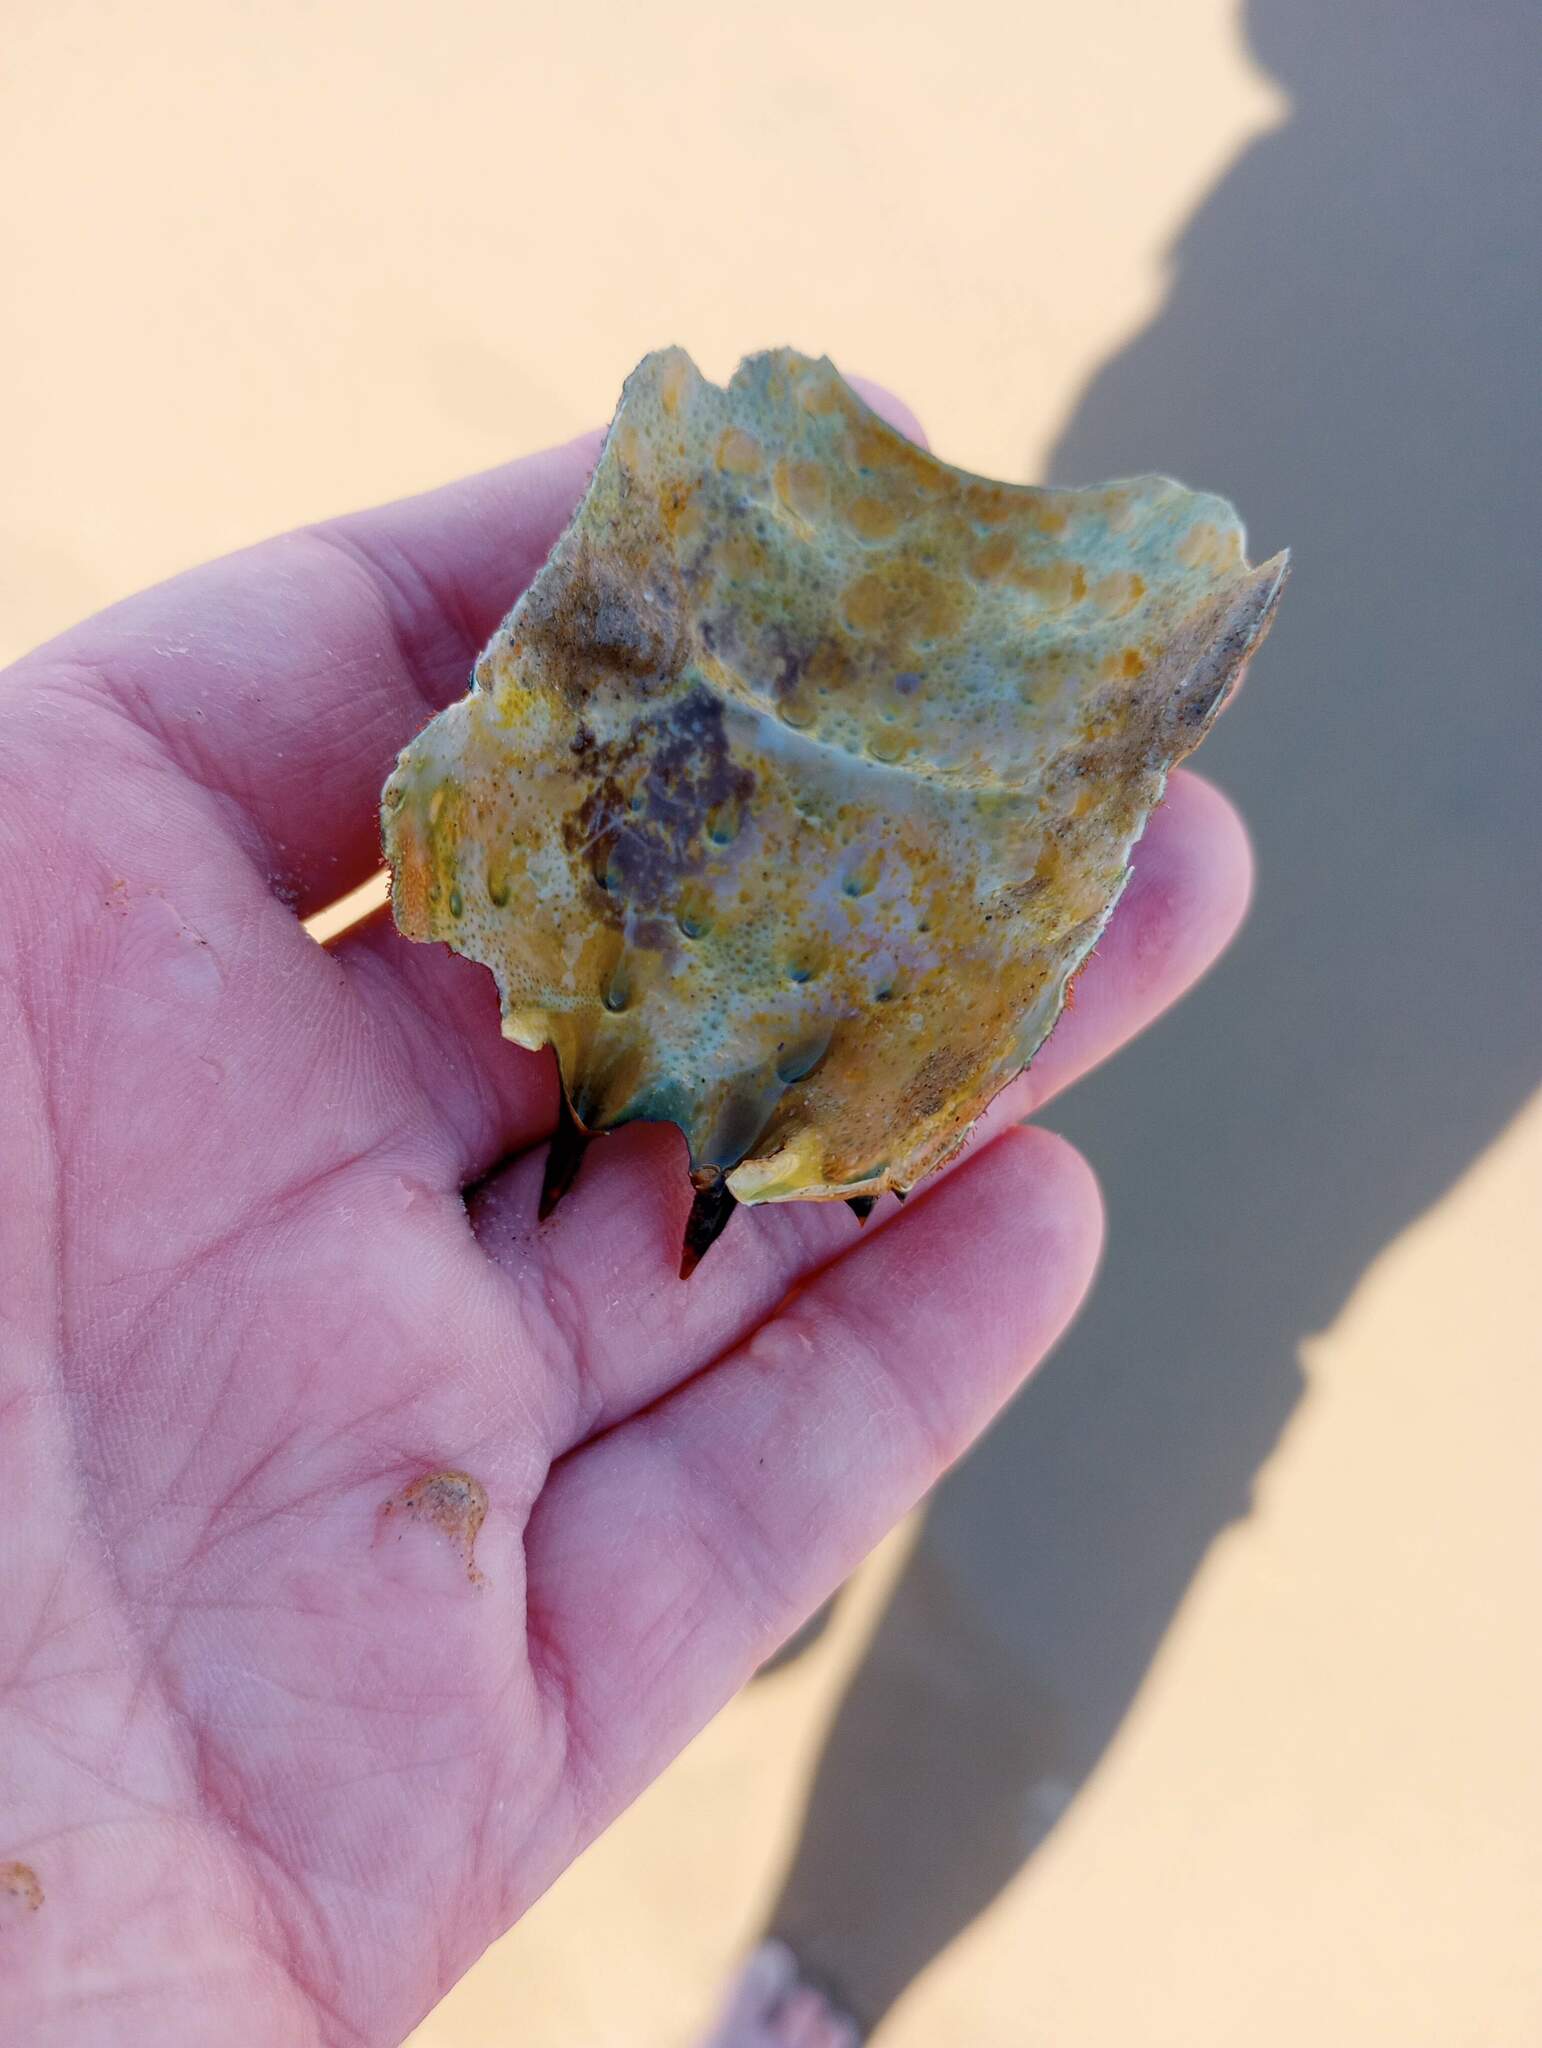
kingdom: Animalia
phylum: Arthropoda
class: Malacostraca
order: Decapoda
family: Palinuridae
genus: Panulirus
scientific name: Panulirus interruptus
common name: California spiny lobster
